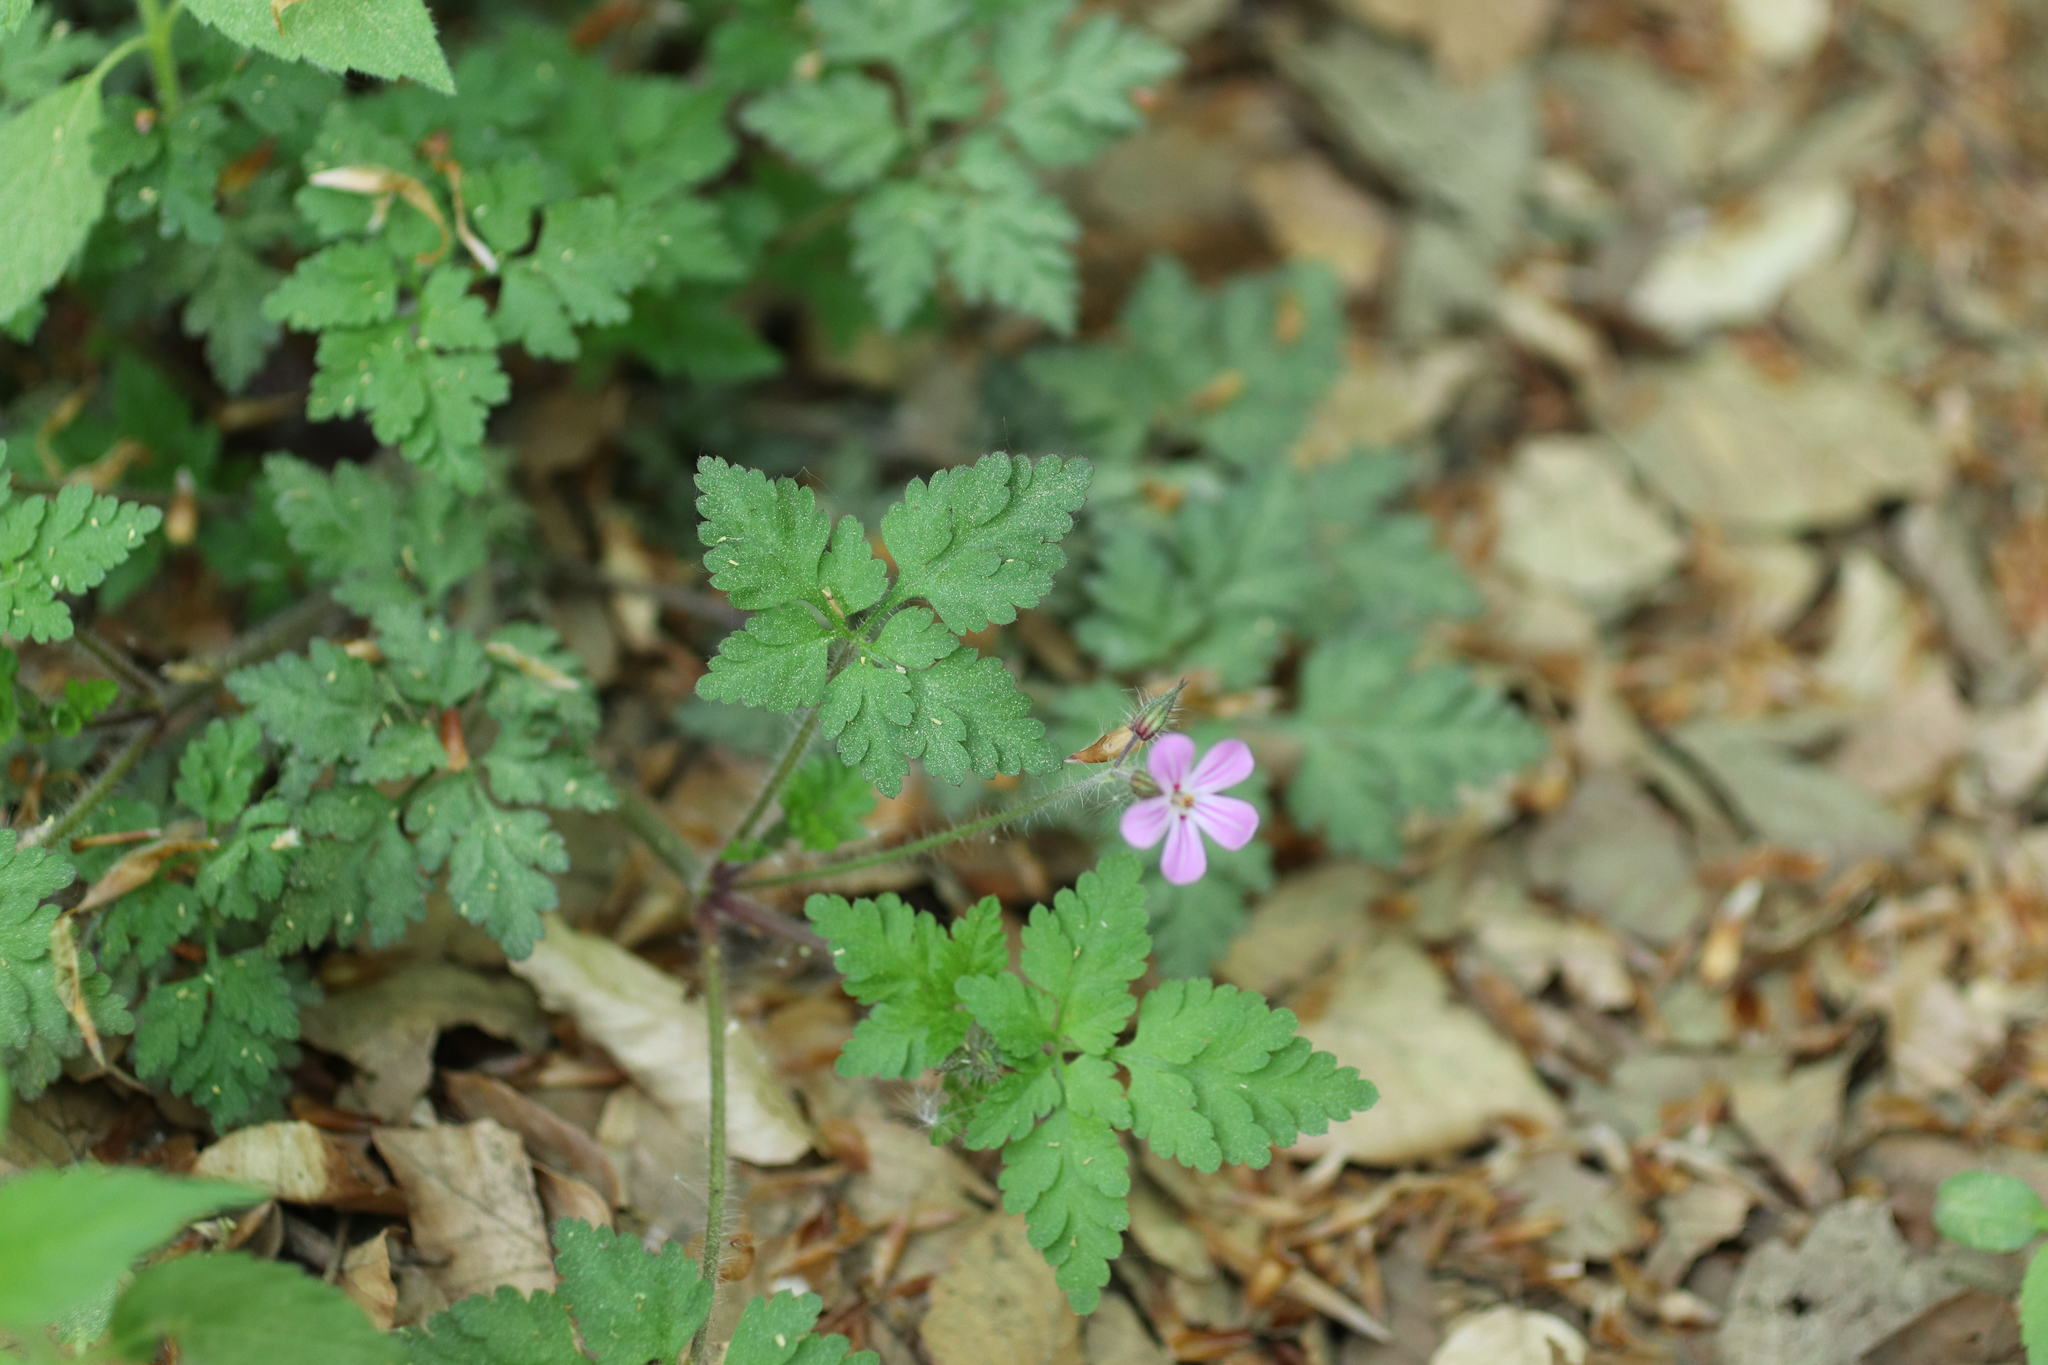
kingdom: Plantae
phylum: Tracheophyta
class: Magnoliopsida
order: Geraniales
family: Geraniaceae
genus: Geranium
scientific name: Geranium robertianum
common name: Herb-robert
